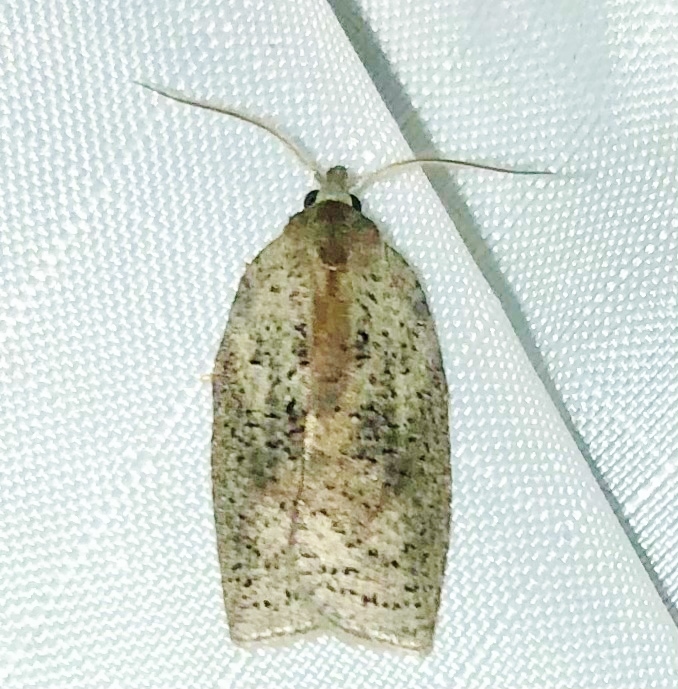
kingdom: Animalia
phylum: Arthropoda
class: Insecta
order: Lepidoptera
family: Tortricidae
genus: Amorbia
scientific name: Amorbia humerosana
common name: White-lined leafroller moth
